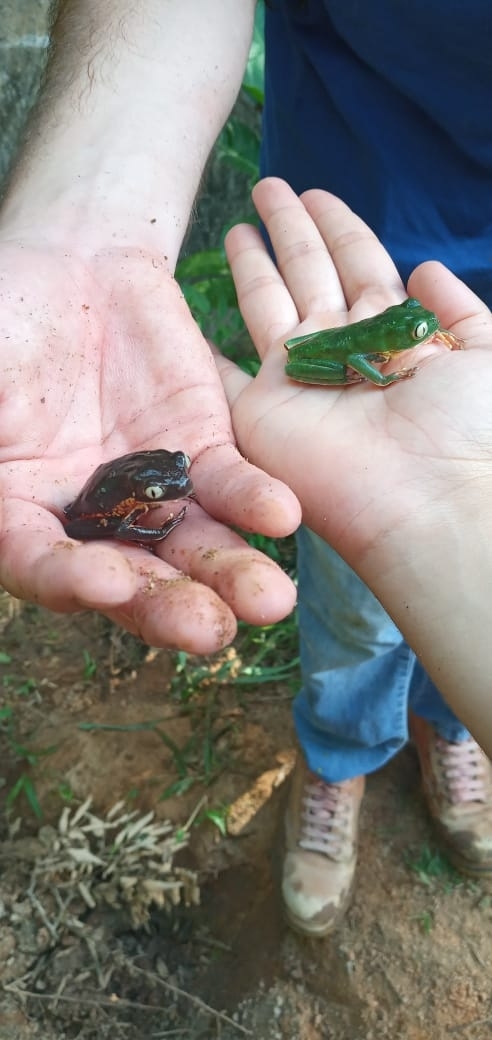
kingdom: Animalia
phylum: Chordata
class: Amphibia
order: Anura
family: Phyllomedusidae
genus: Phyllomedusa
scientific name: Phyllomedusa distincta
